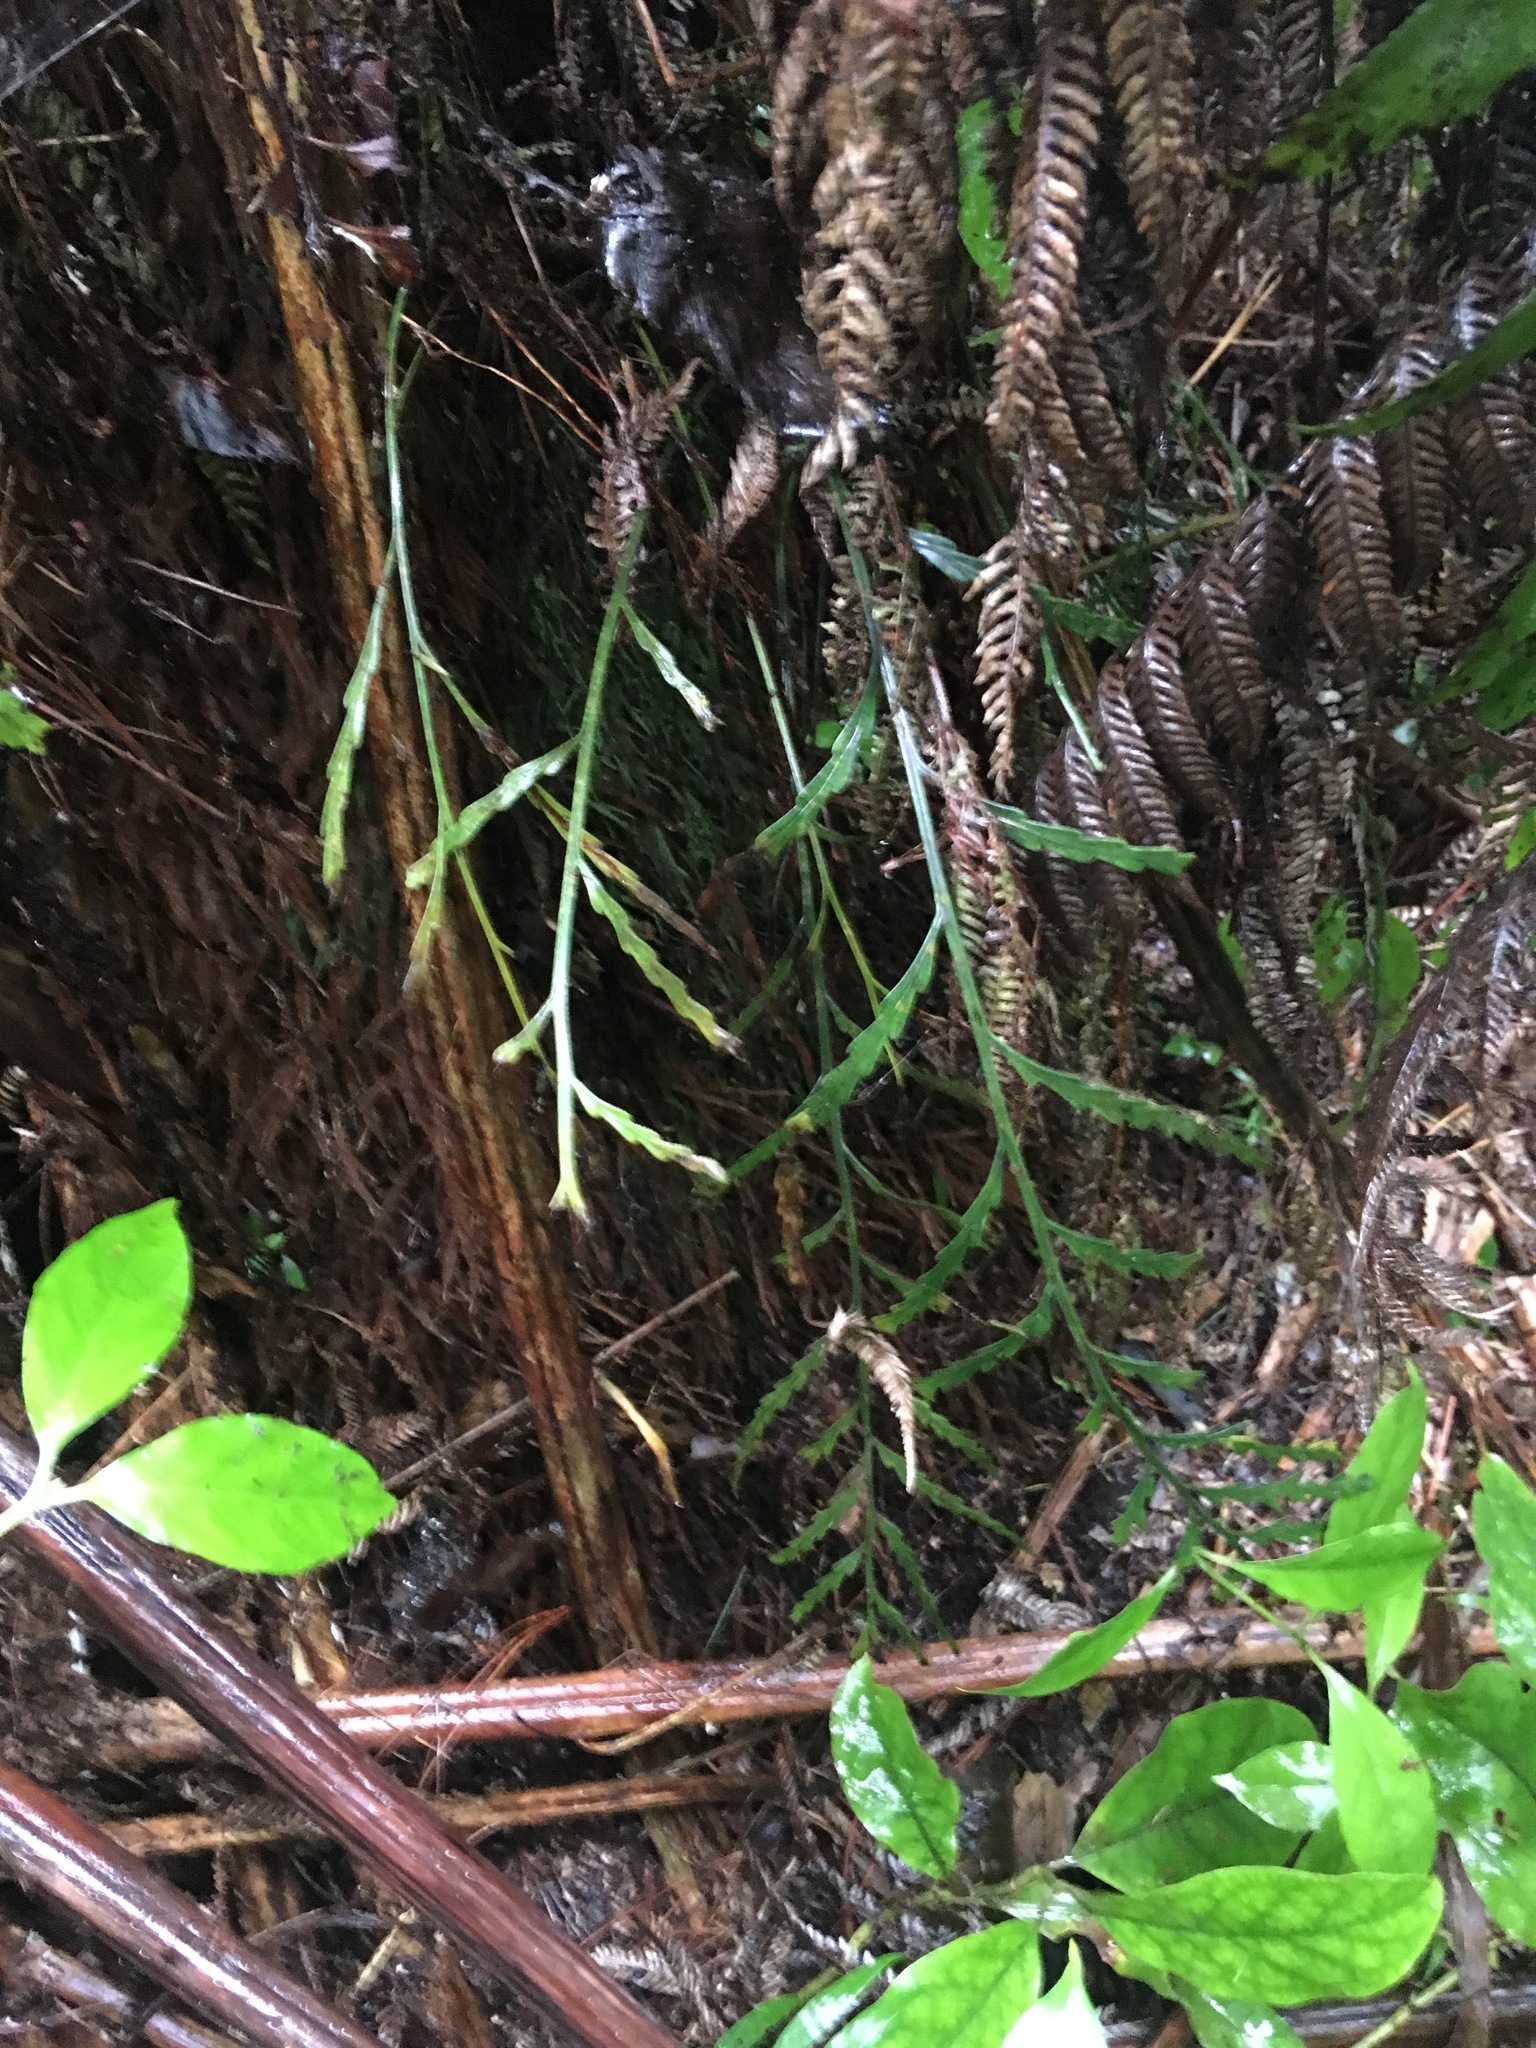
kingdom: Plantae
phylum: Tracheophyta
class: Polypodiopsida
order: Polypodiales
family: Aspleniaceae
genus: Asplenium
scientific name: Asplenium flaccidum
